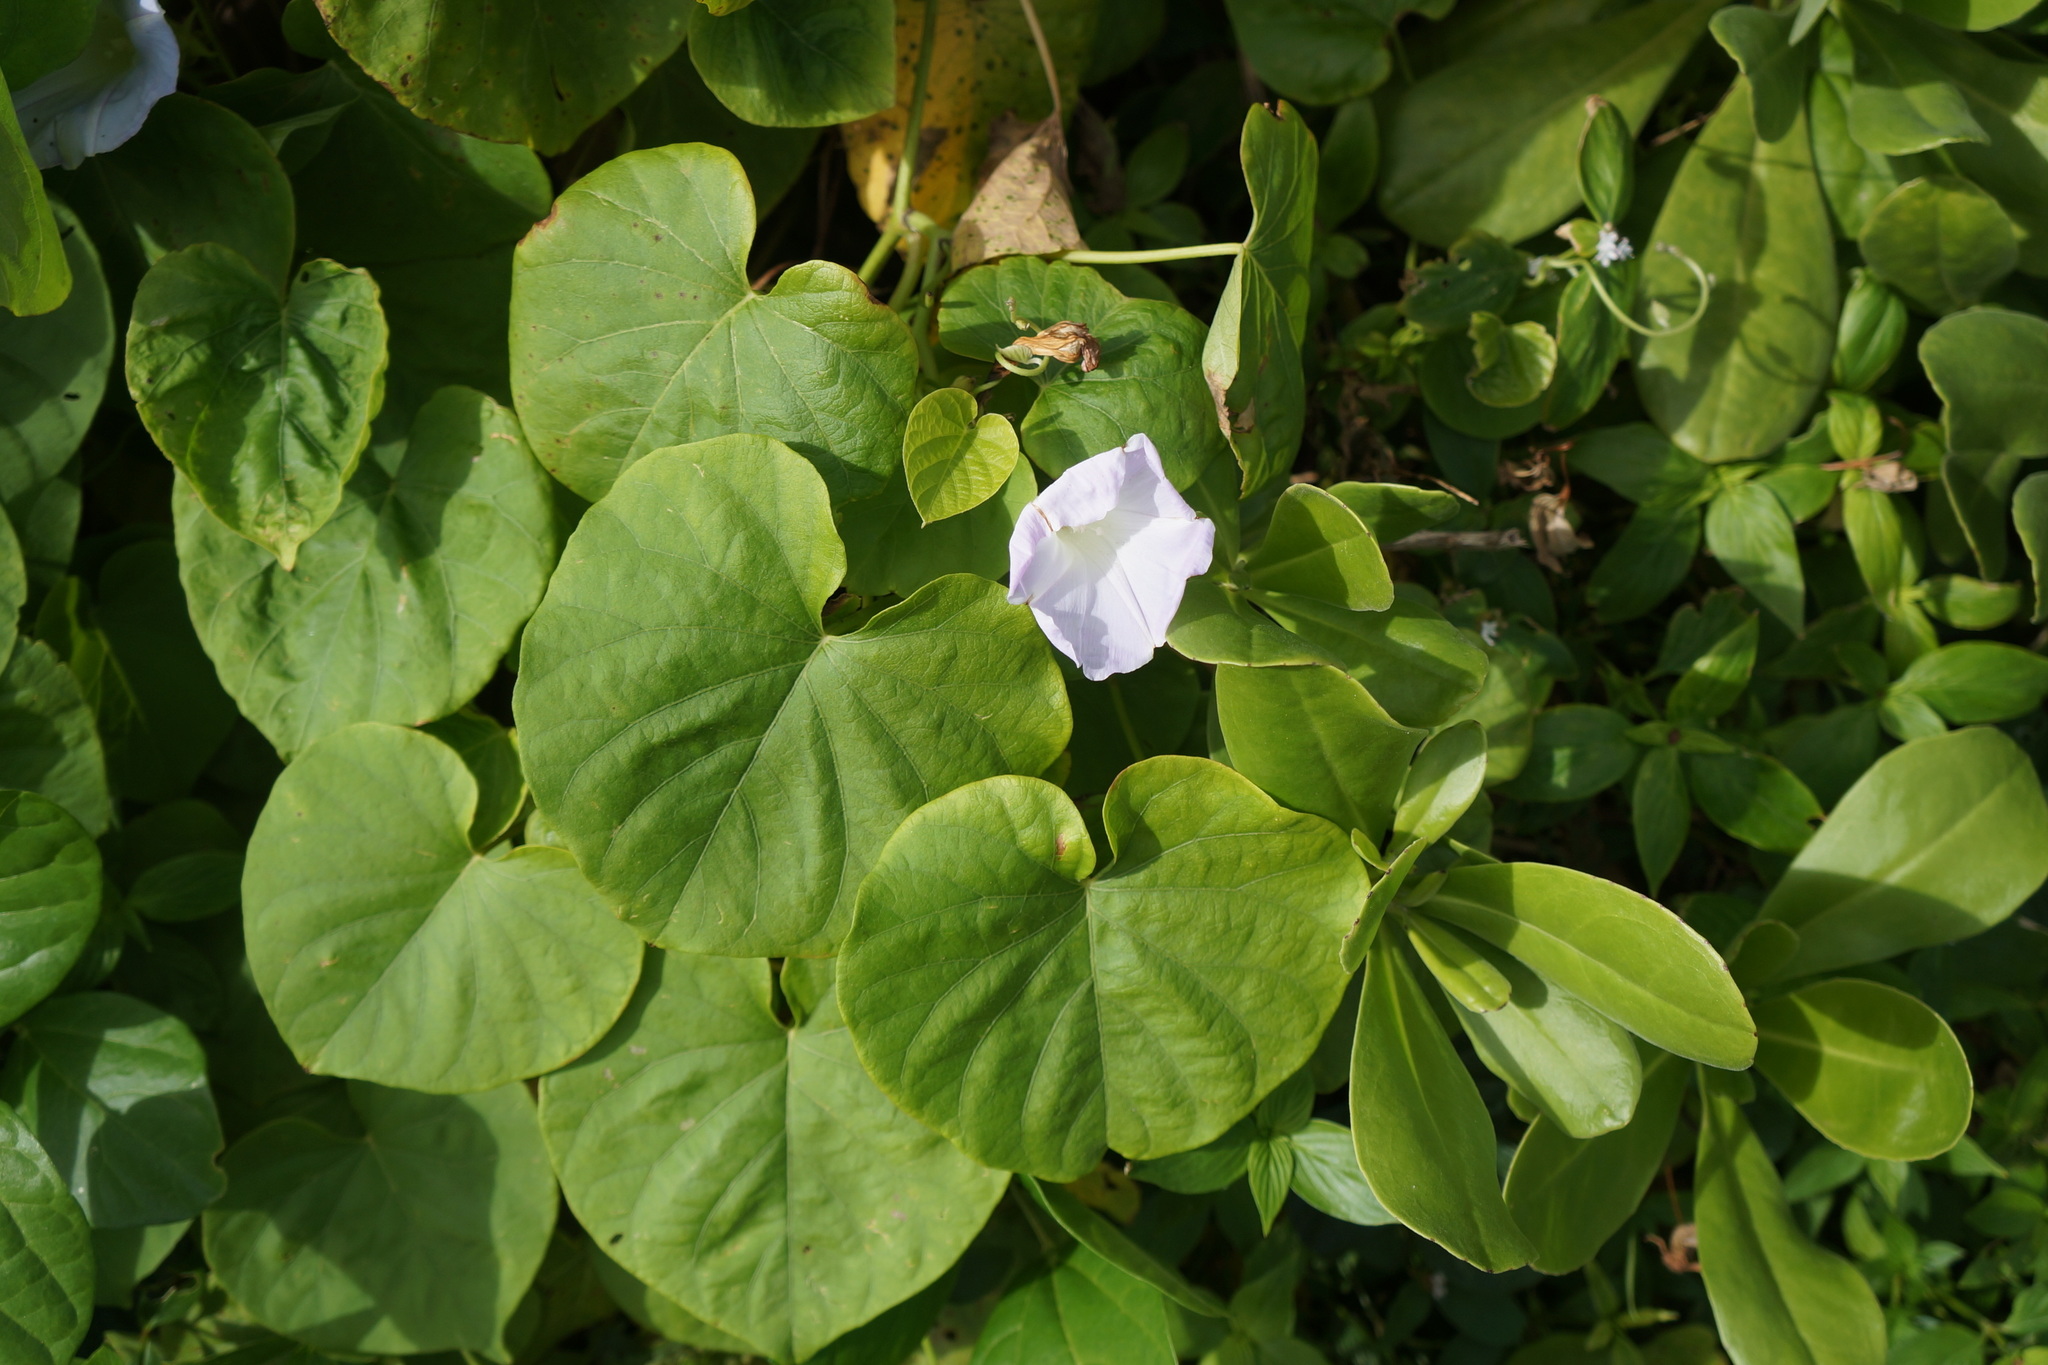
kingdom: Plantae
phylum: Tracheophyta
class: Magnoliopsida
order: Solanales
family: Convolvulaceae
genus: Ipomoea
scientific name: Ipomoea indica
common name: Blue dawnflower
